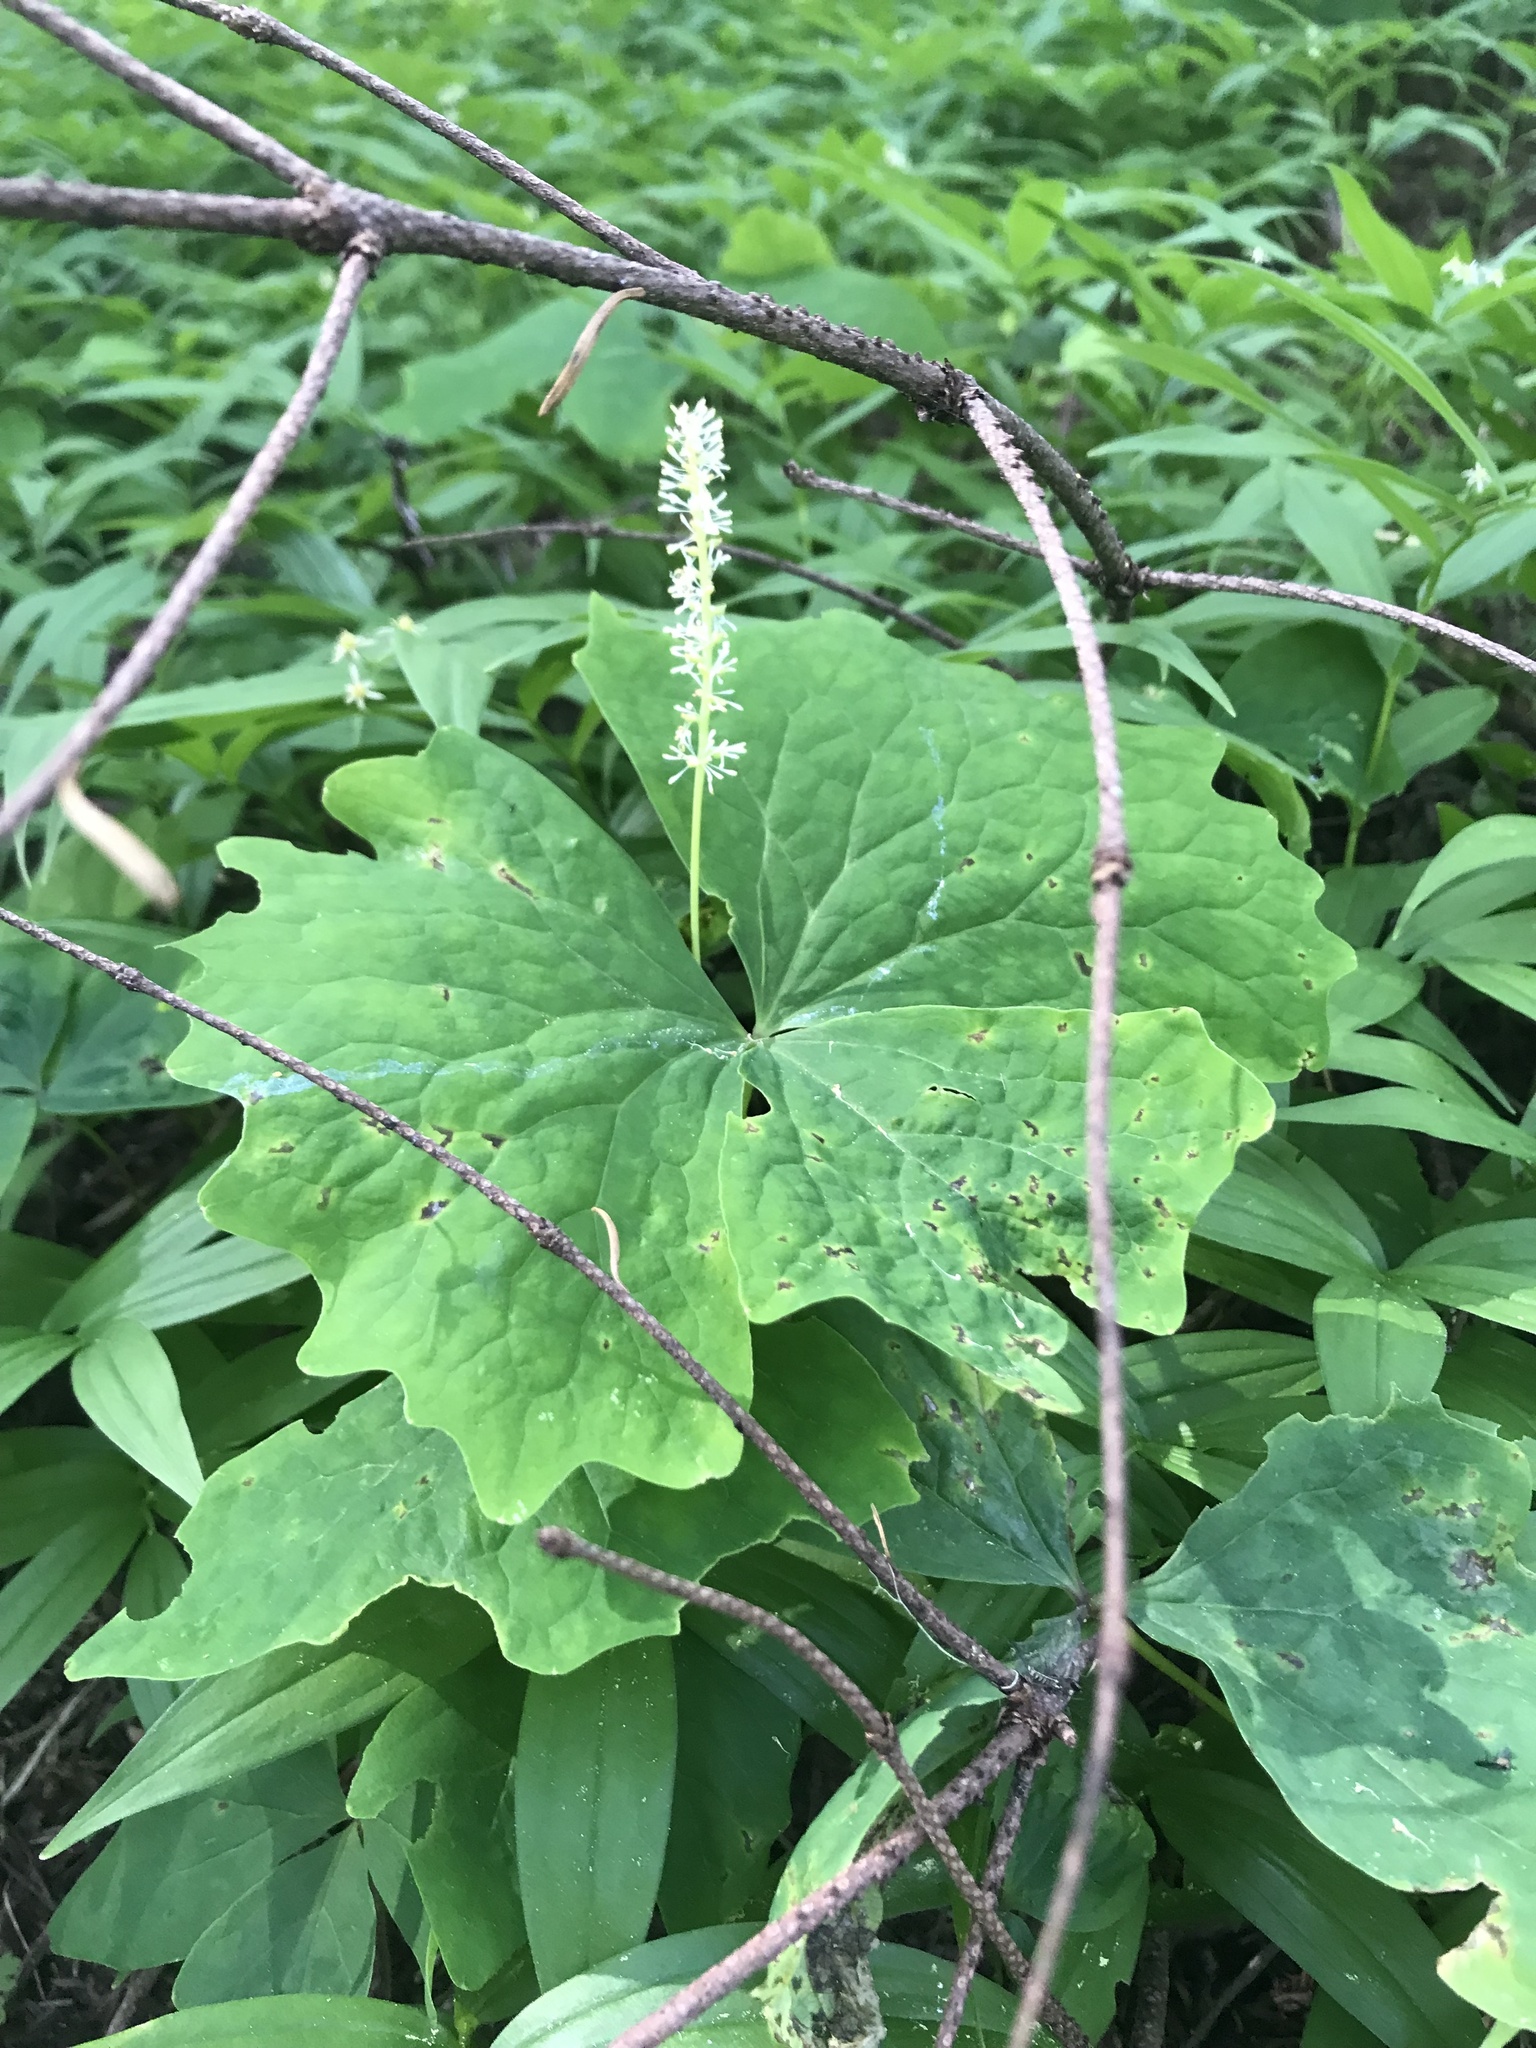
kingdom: Plantae
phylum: Tracheophyta
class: Magnoliopsida
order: Ranunculales
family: Berberidaceae
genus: Achlys
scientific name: Achlys triphylla
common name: Vanilla-leaf
